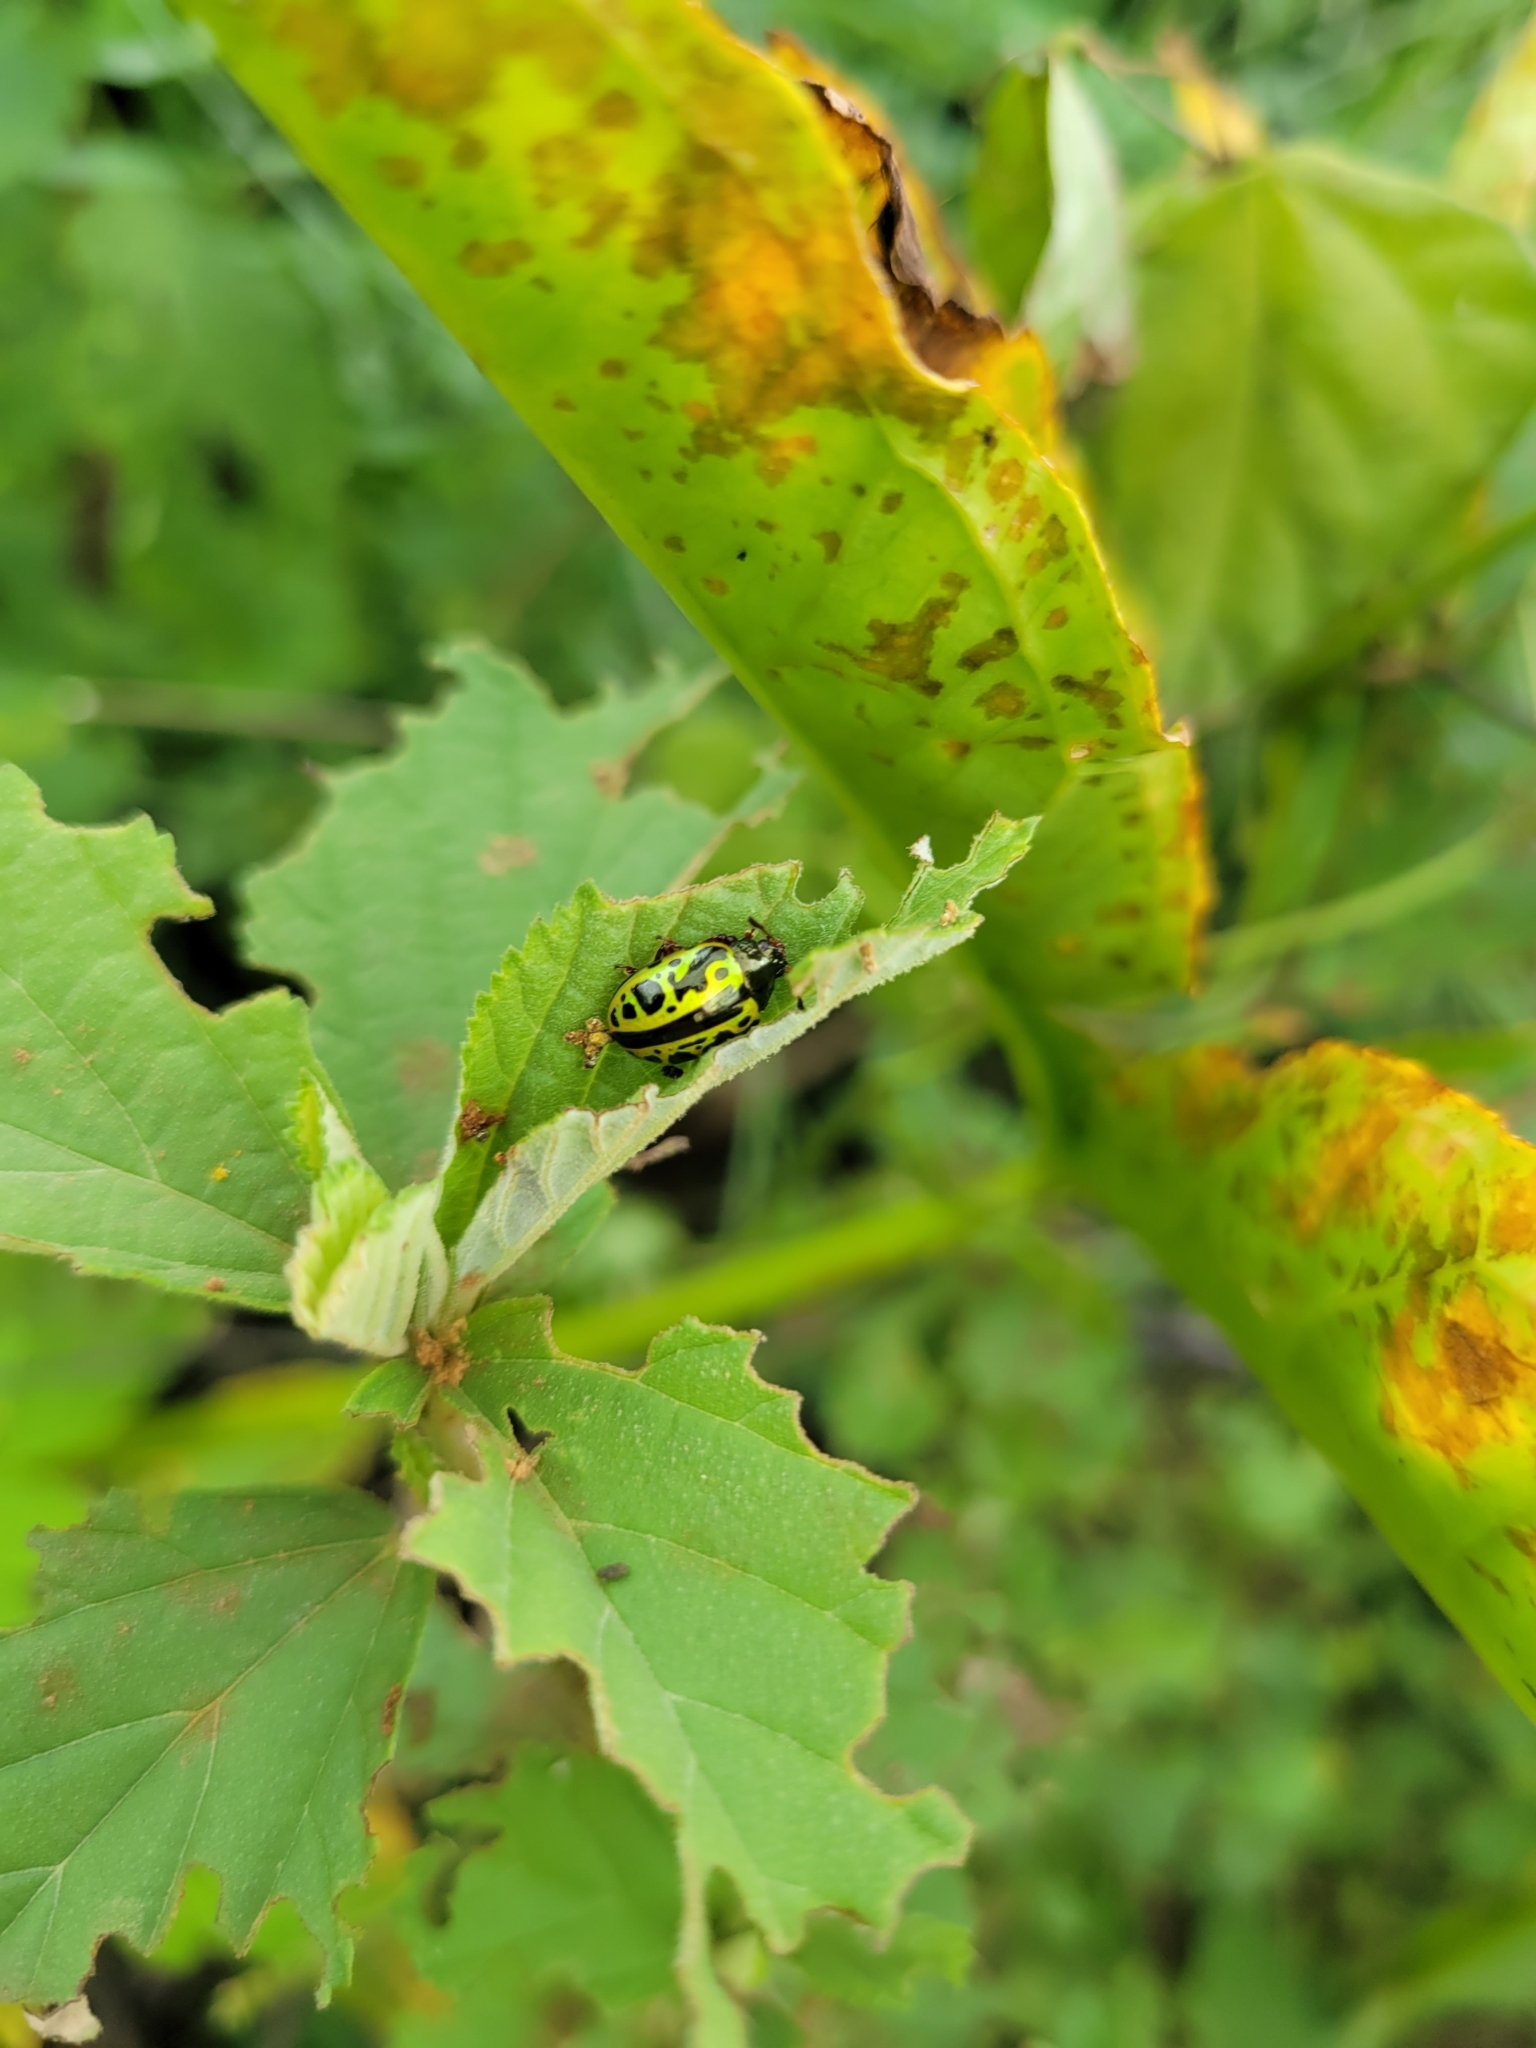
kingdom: Animalia
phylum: Arthropoda
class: Insecta
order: Coleoptera
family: Chrysomelidae
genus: Calligrapha
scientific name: Calligrapha fulvipes
